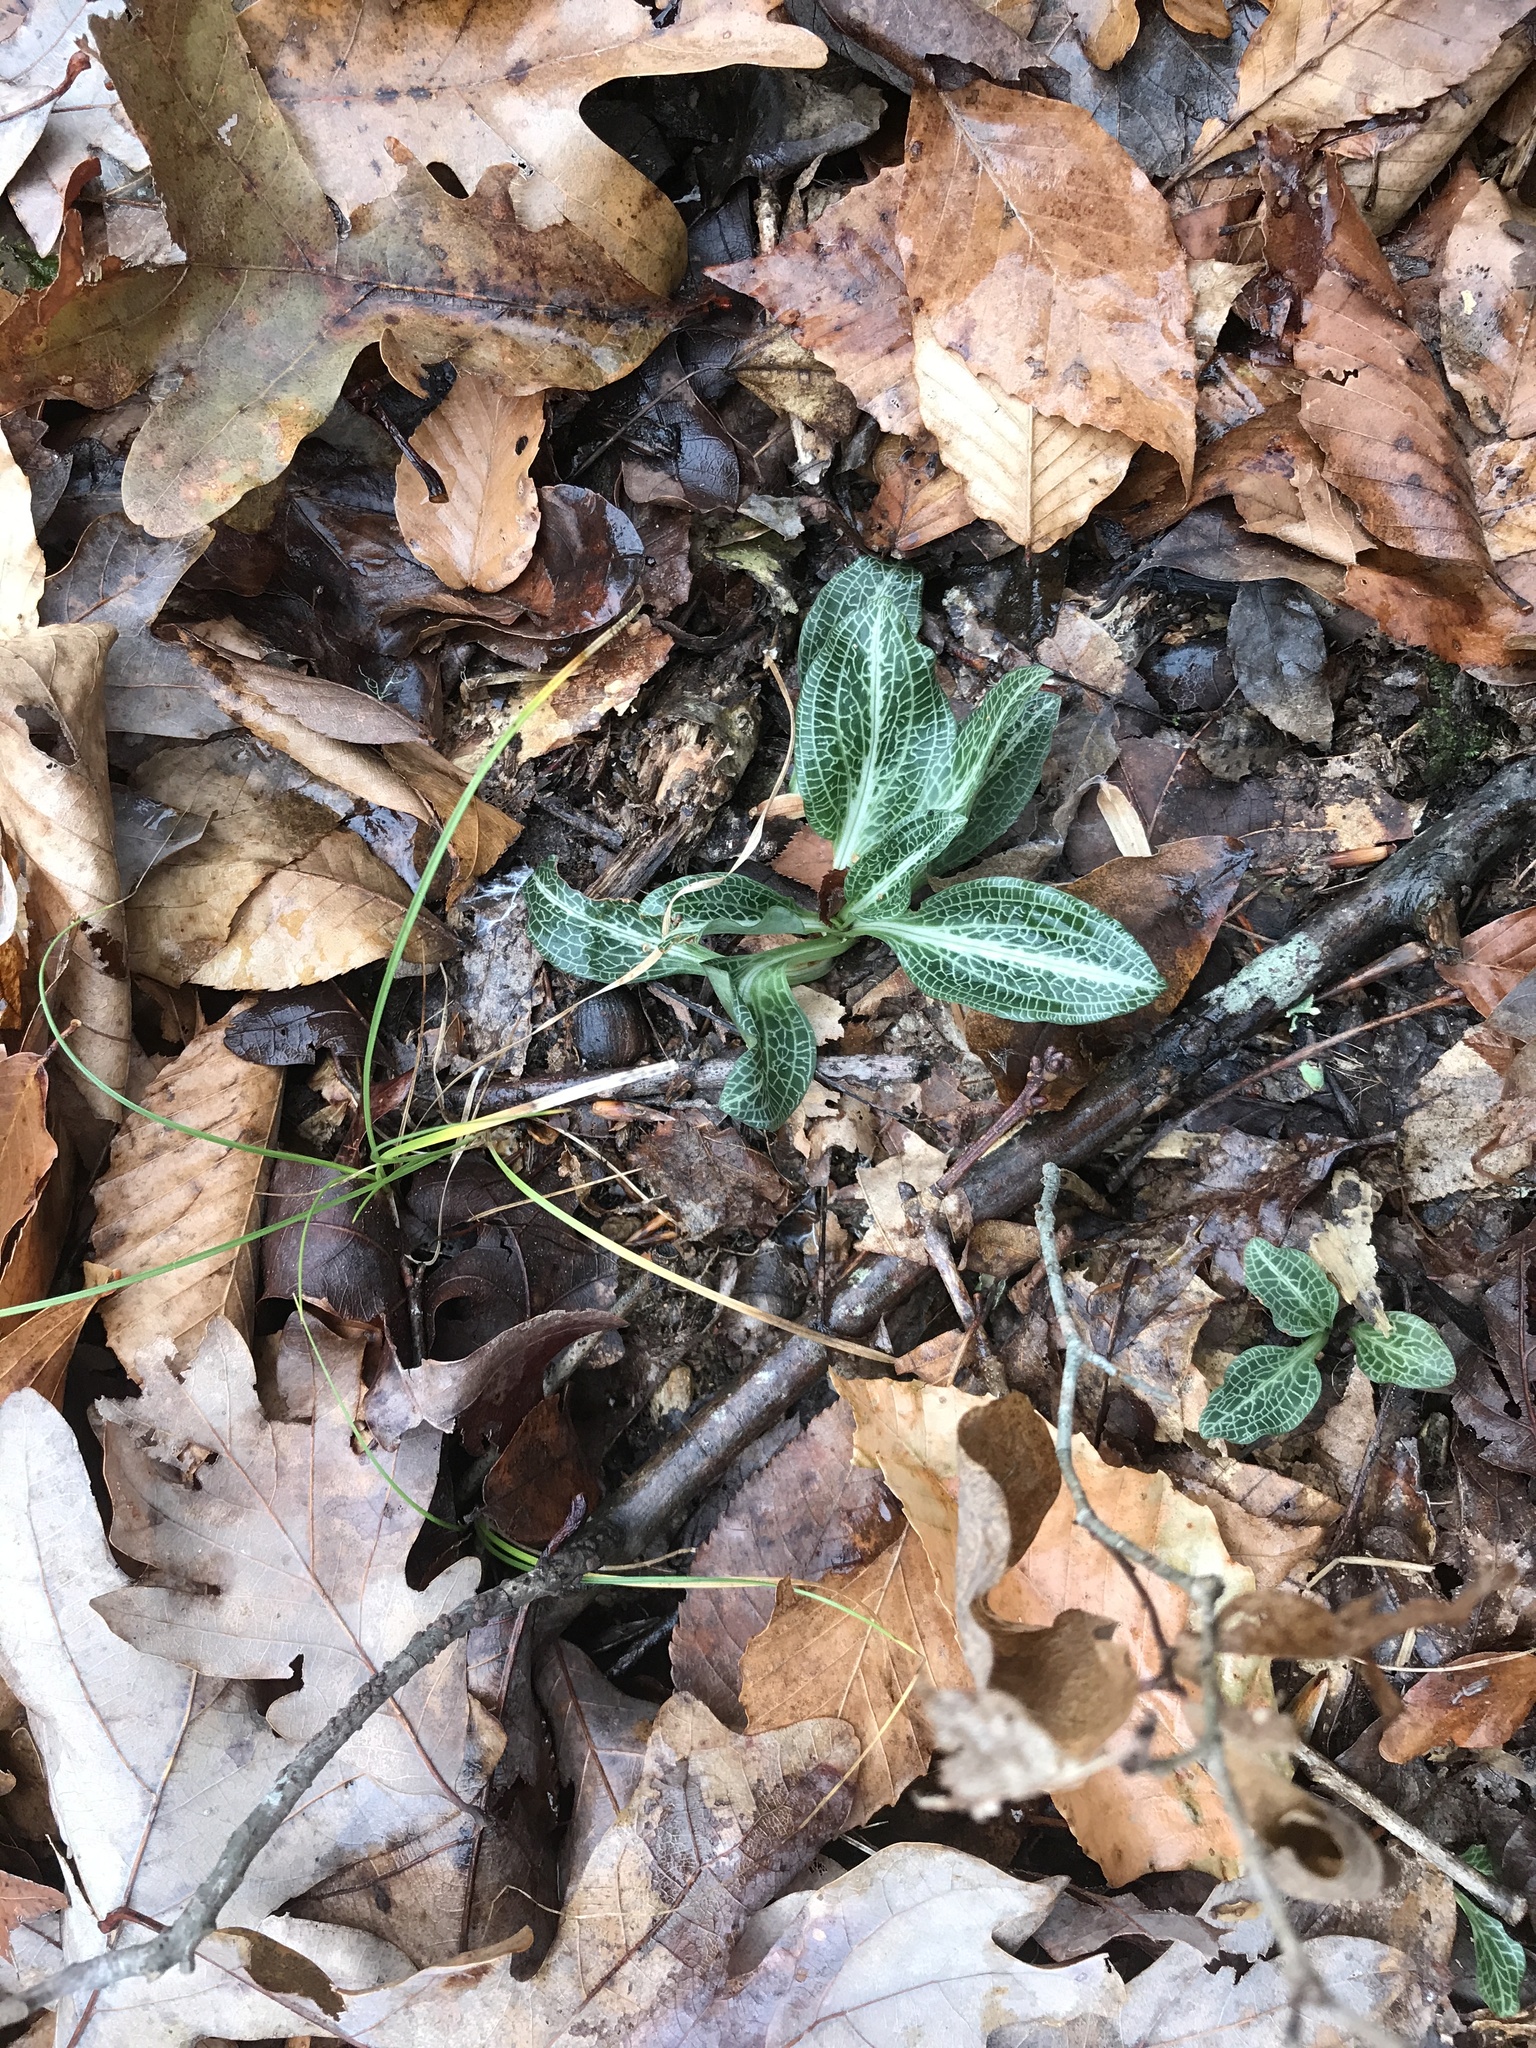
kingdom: Plantae
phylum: Tracheophyta
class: Liliopsida
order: Asparagales
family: Orchidaceae
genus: Goodyera
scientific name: Goodyera pubescens
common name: Downy rattlesnake-plantain
